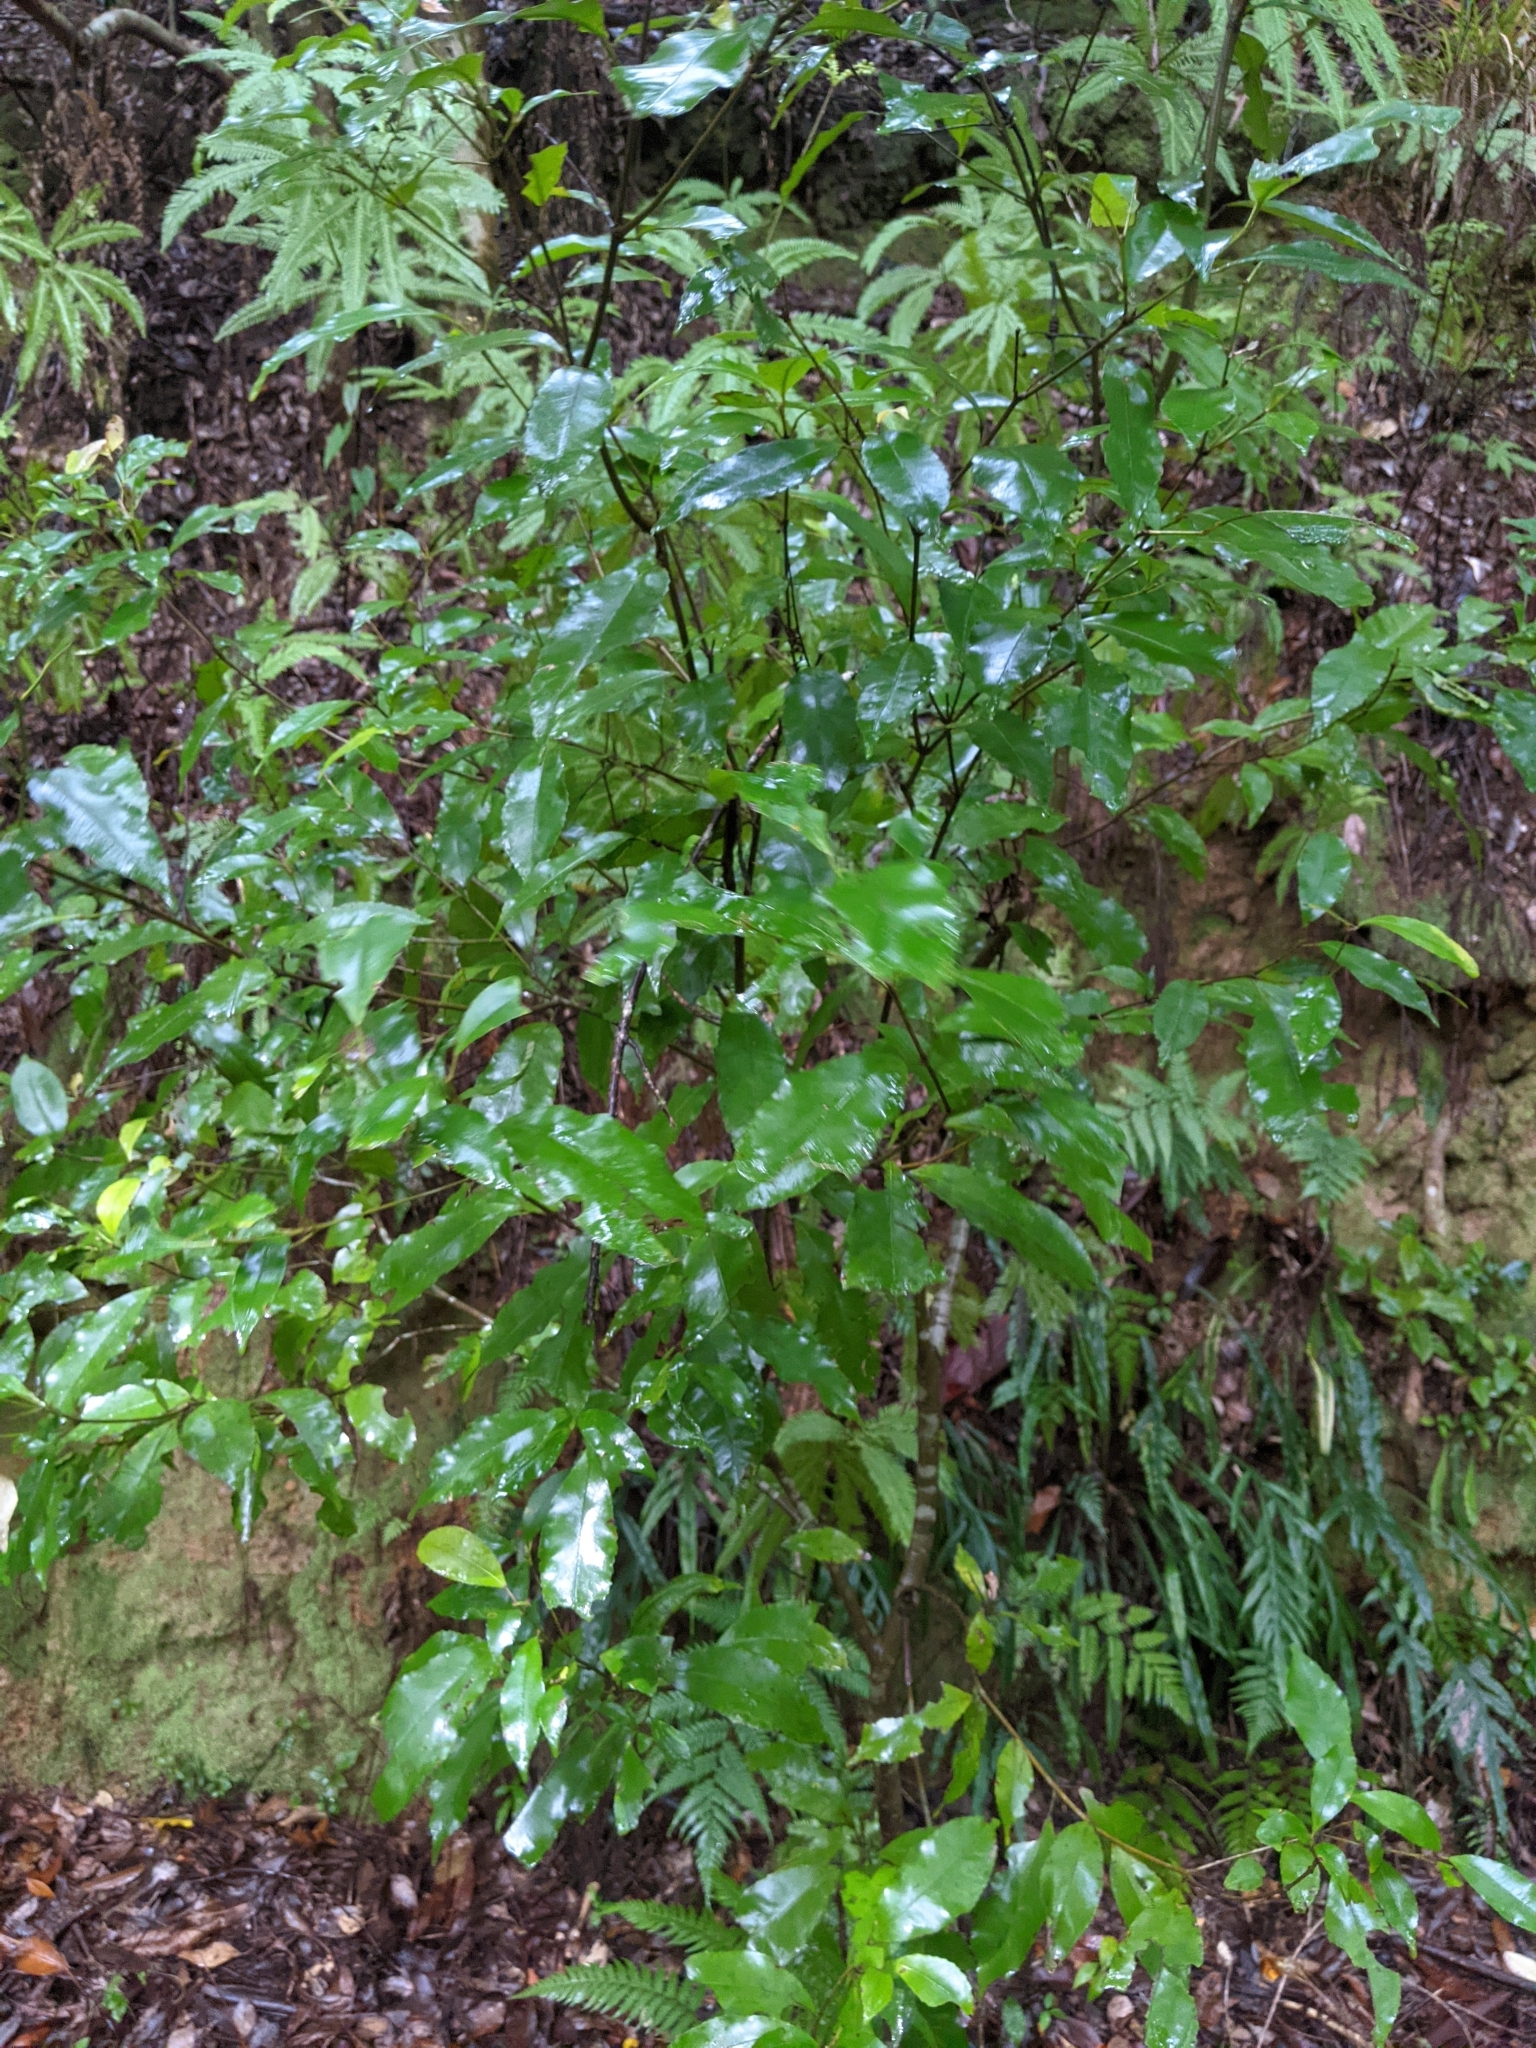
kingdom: Plantae
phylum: Tracheophyta
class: Magnoliopsida
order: Oxalidales
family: Cunoniaceae
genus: Schizomeria
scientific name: Schizomeria ovata
